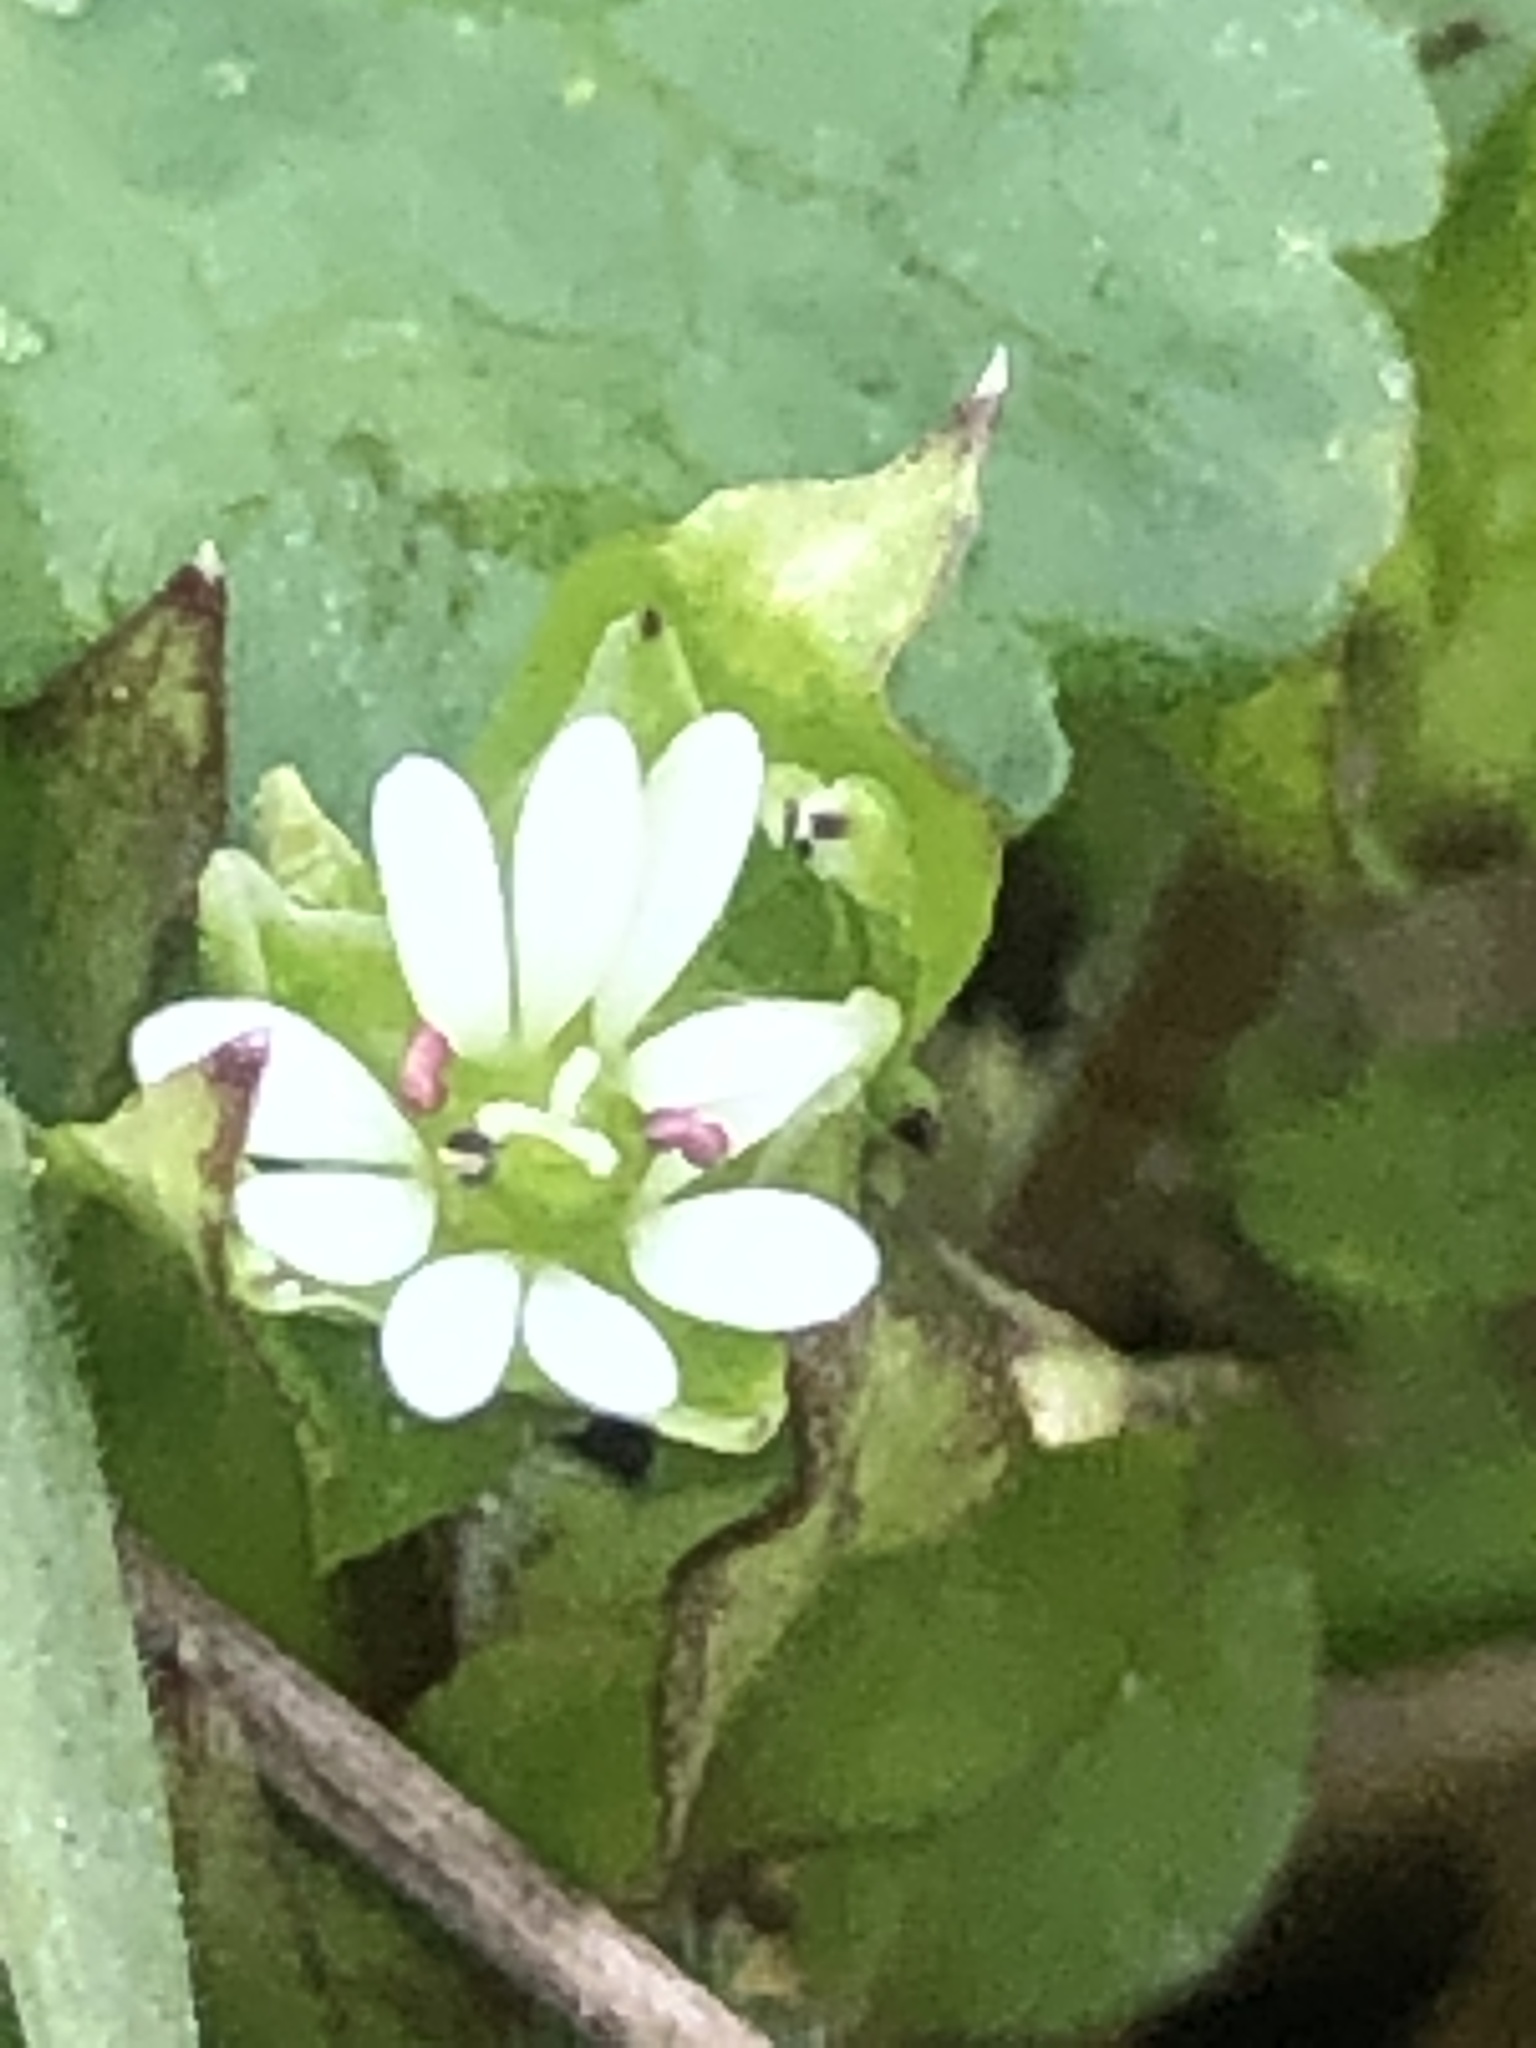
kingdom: Plantae
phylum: Tracheophyta
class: Magnoliopsida
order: Caryophyllales
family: Caryophyllaceae
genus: Stellaria
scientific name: Stellaria media
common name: Common chickweed
